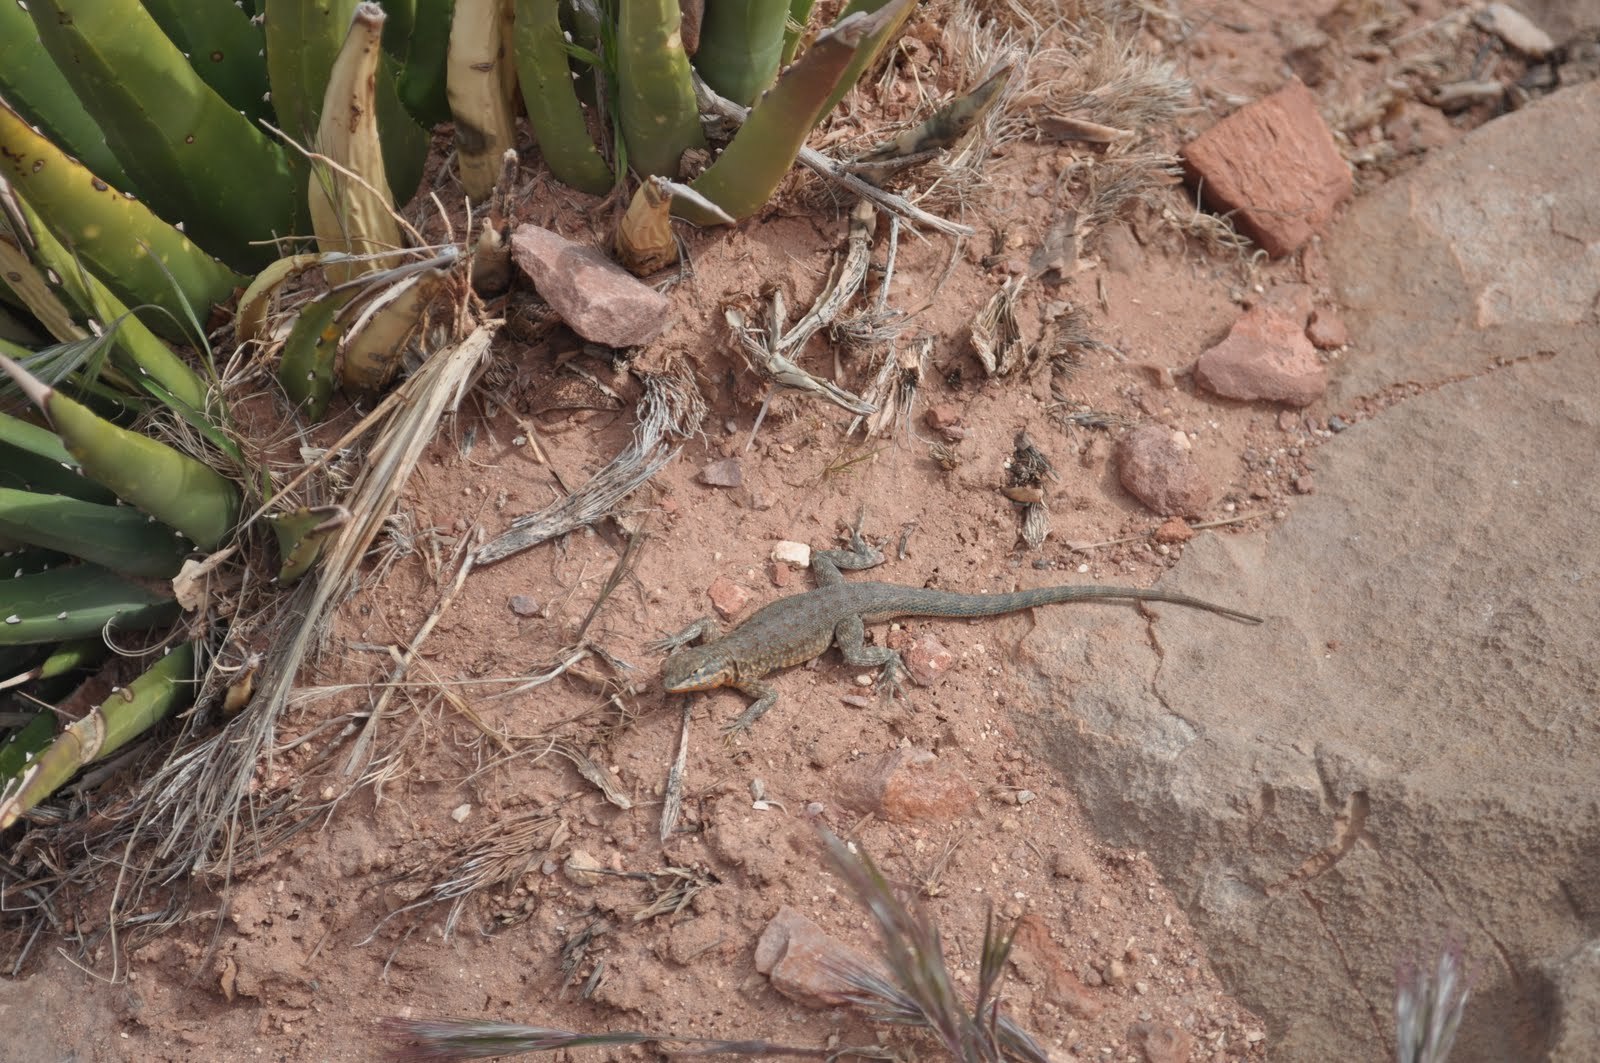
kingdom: Animalia
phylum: Chordata
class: Squamata
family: Phrynosomatidae
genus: Uta
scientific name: Uta stansburiana
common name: Side-blotched lizard
